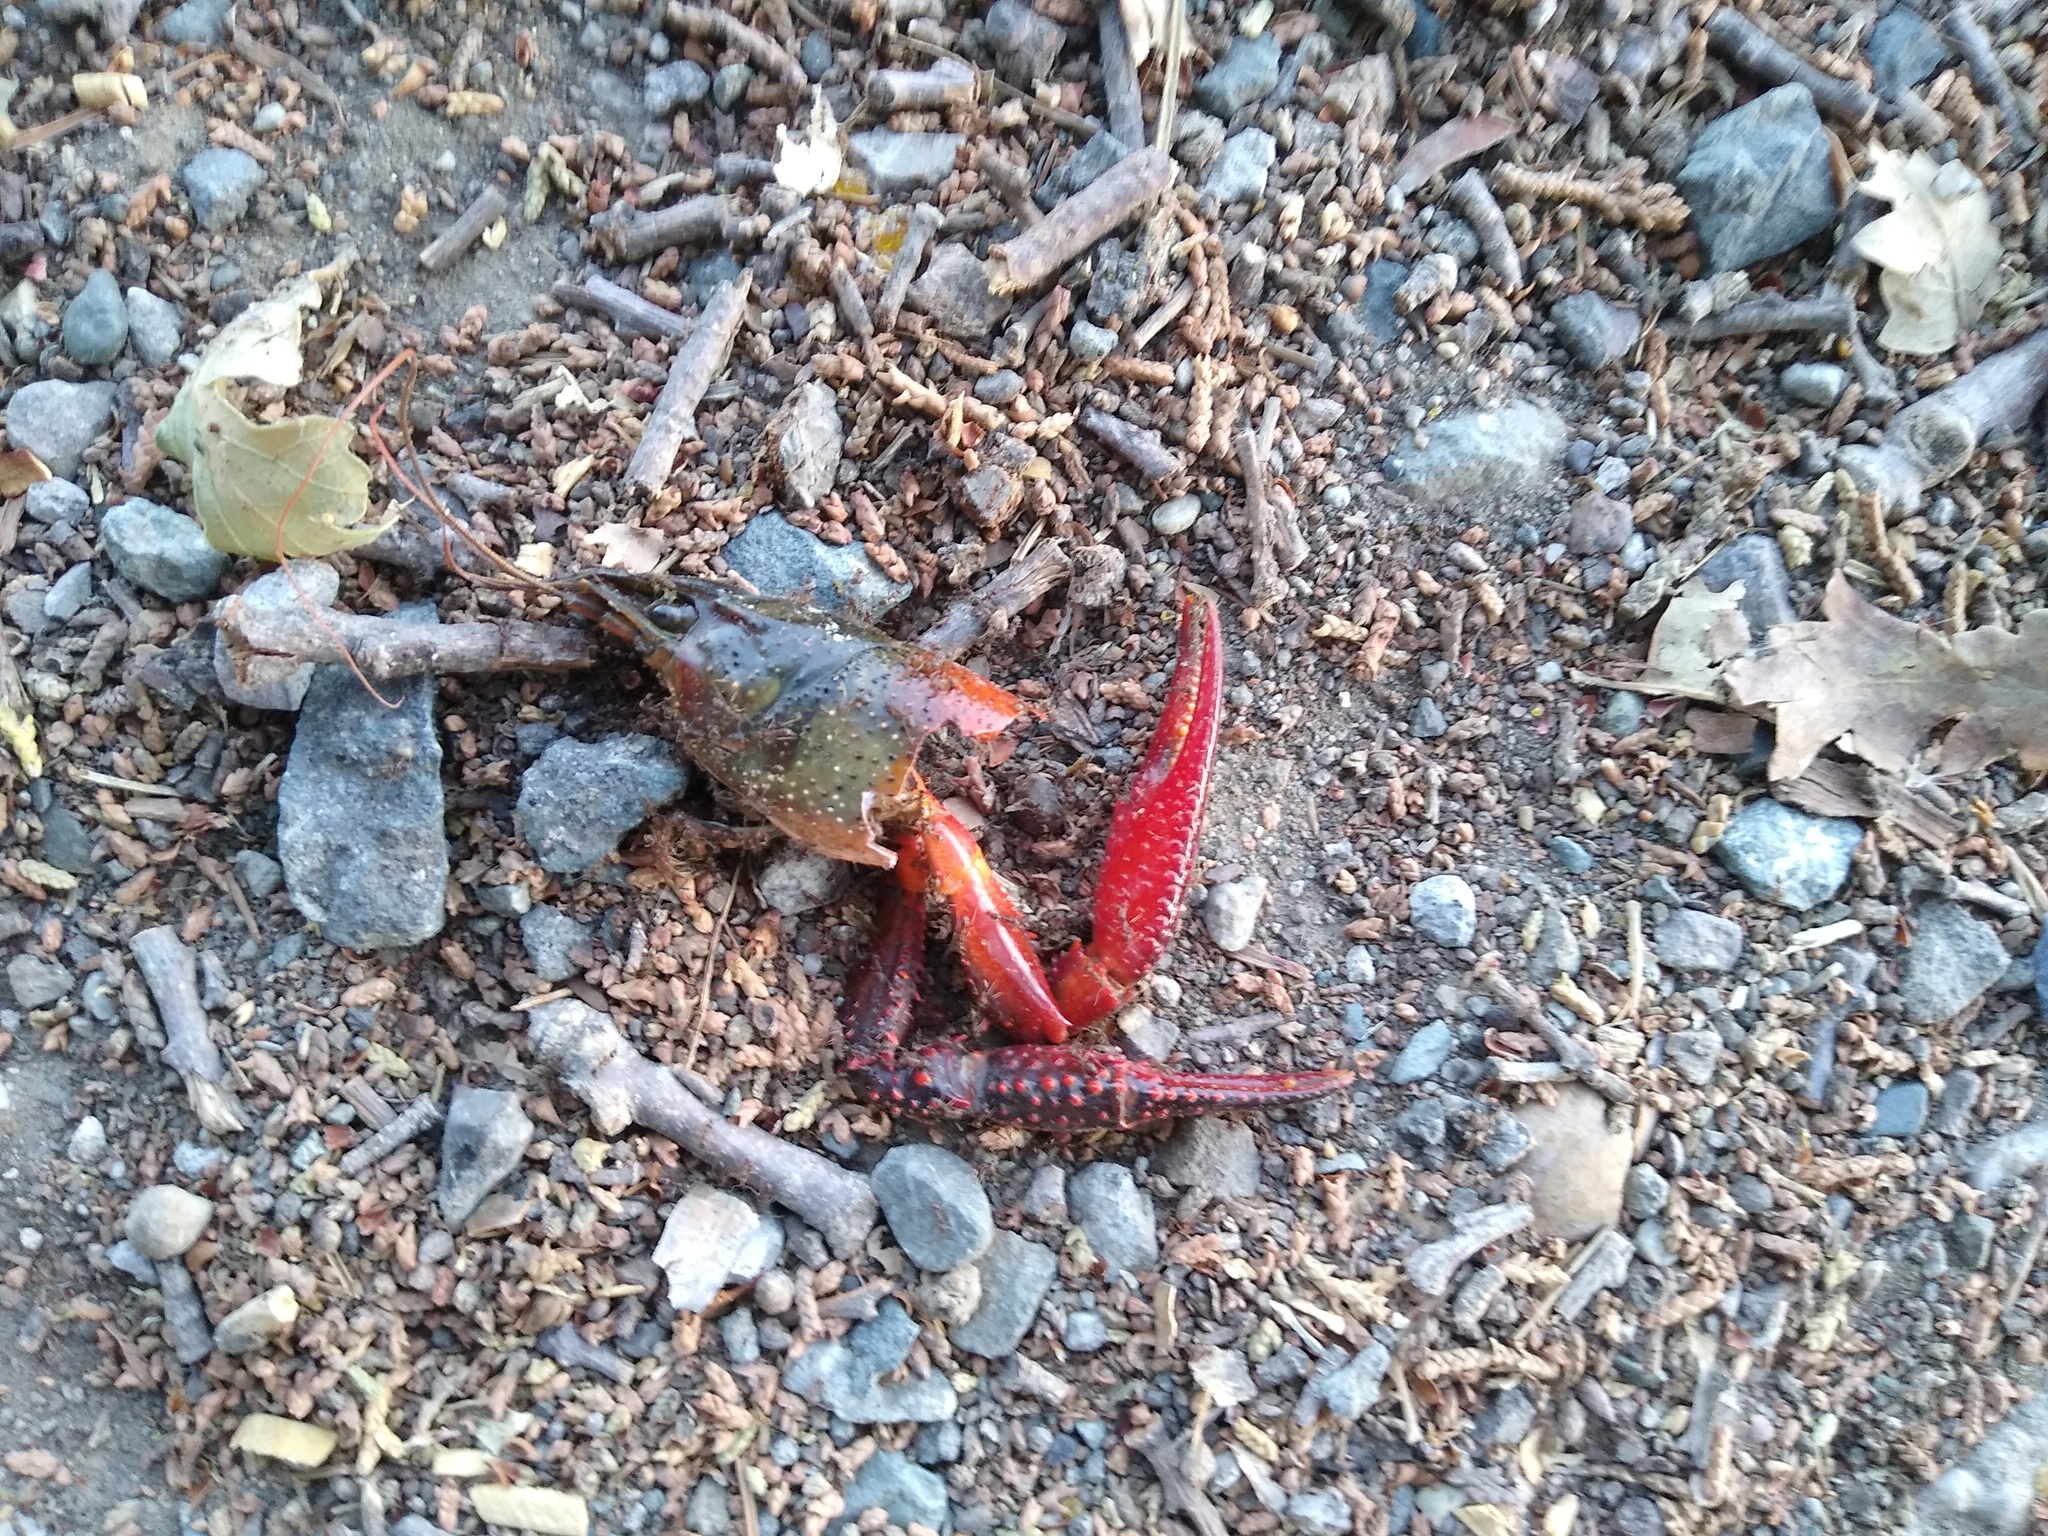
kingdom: Animalia
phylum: Arthropoda
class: Malacostraca
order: Decapoda
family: Cambaridae
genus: Procambarus
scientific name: Procambarus clarkii
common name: Red swamp crayfish
